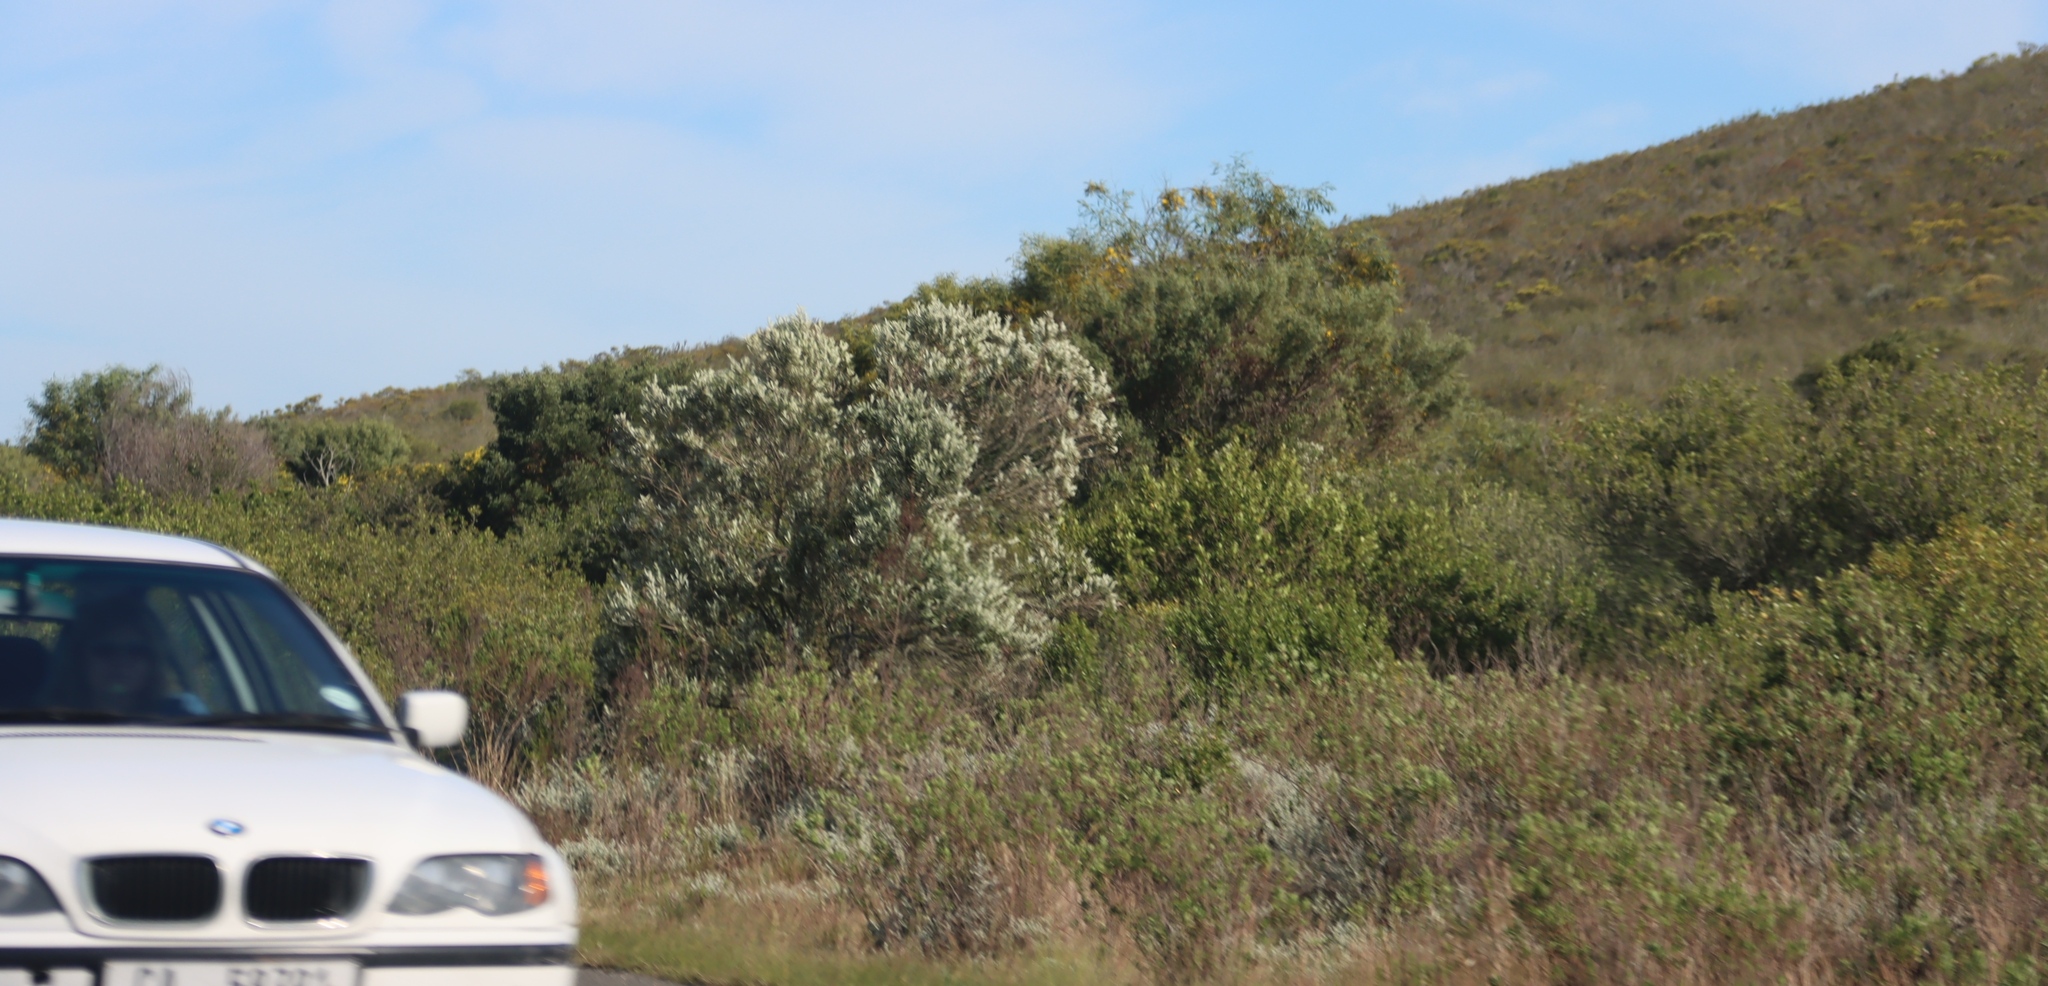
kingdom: Plantae
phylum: Tracheophyta
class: Magnoliopsida
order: Lamiales
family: Scrophulariaceae
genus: Buddleja
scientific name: Buddleja saligna
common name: False olive
